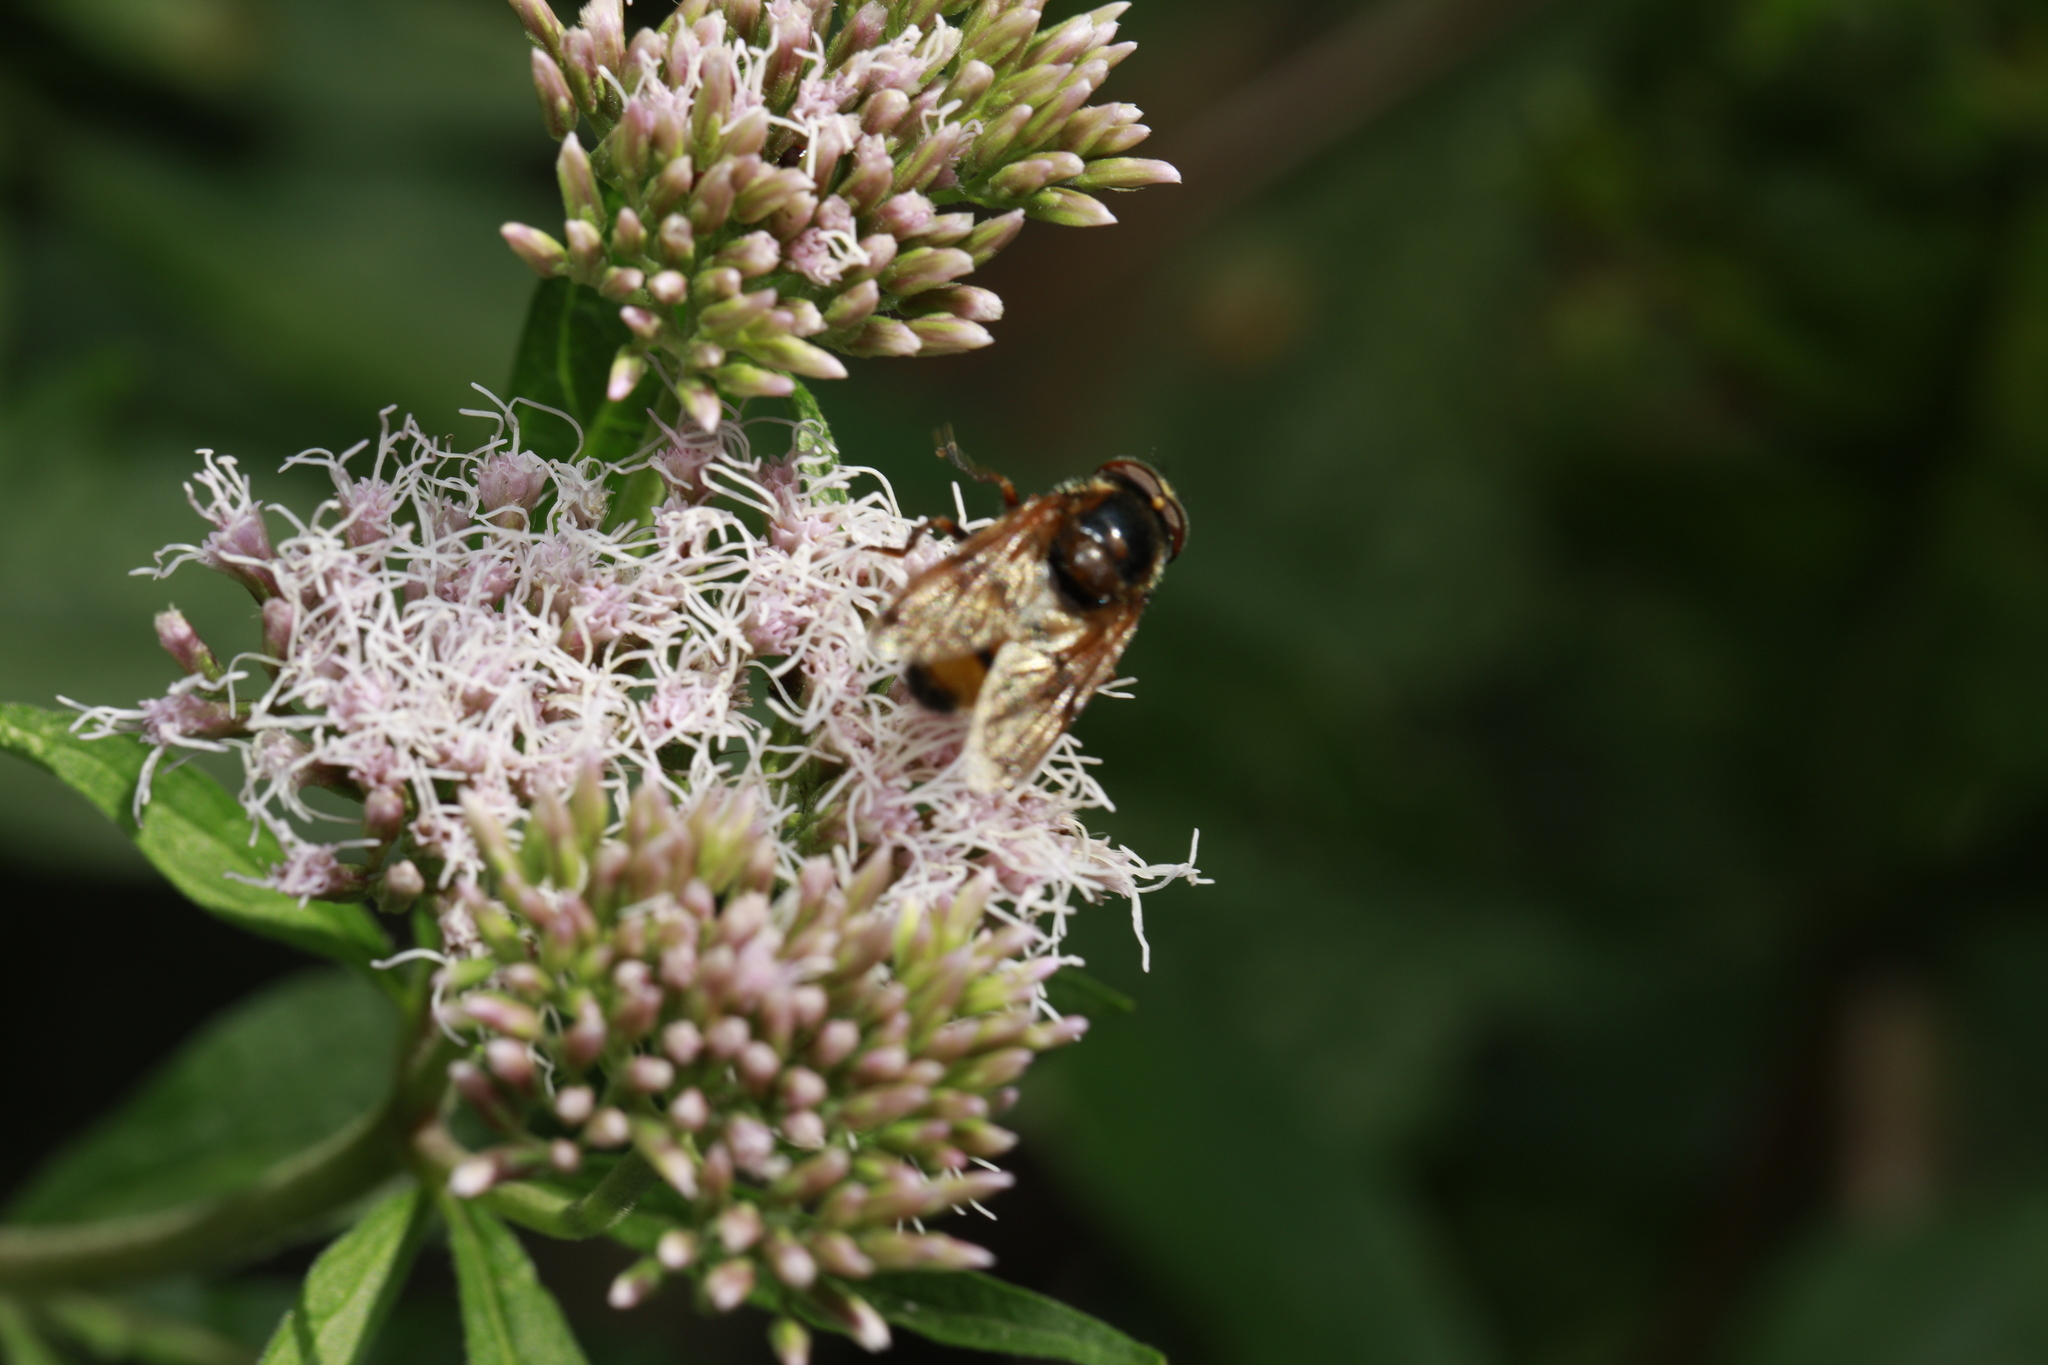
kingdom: Animalia
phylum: Arthropoda
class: Insecta
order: Diptera
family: Syrphidae
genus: Volucella
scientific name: Volucella inanis
